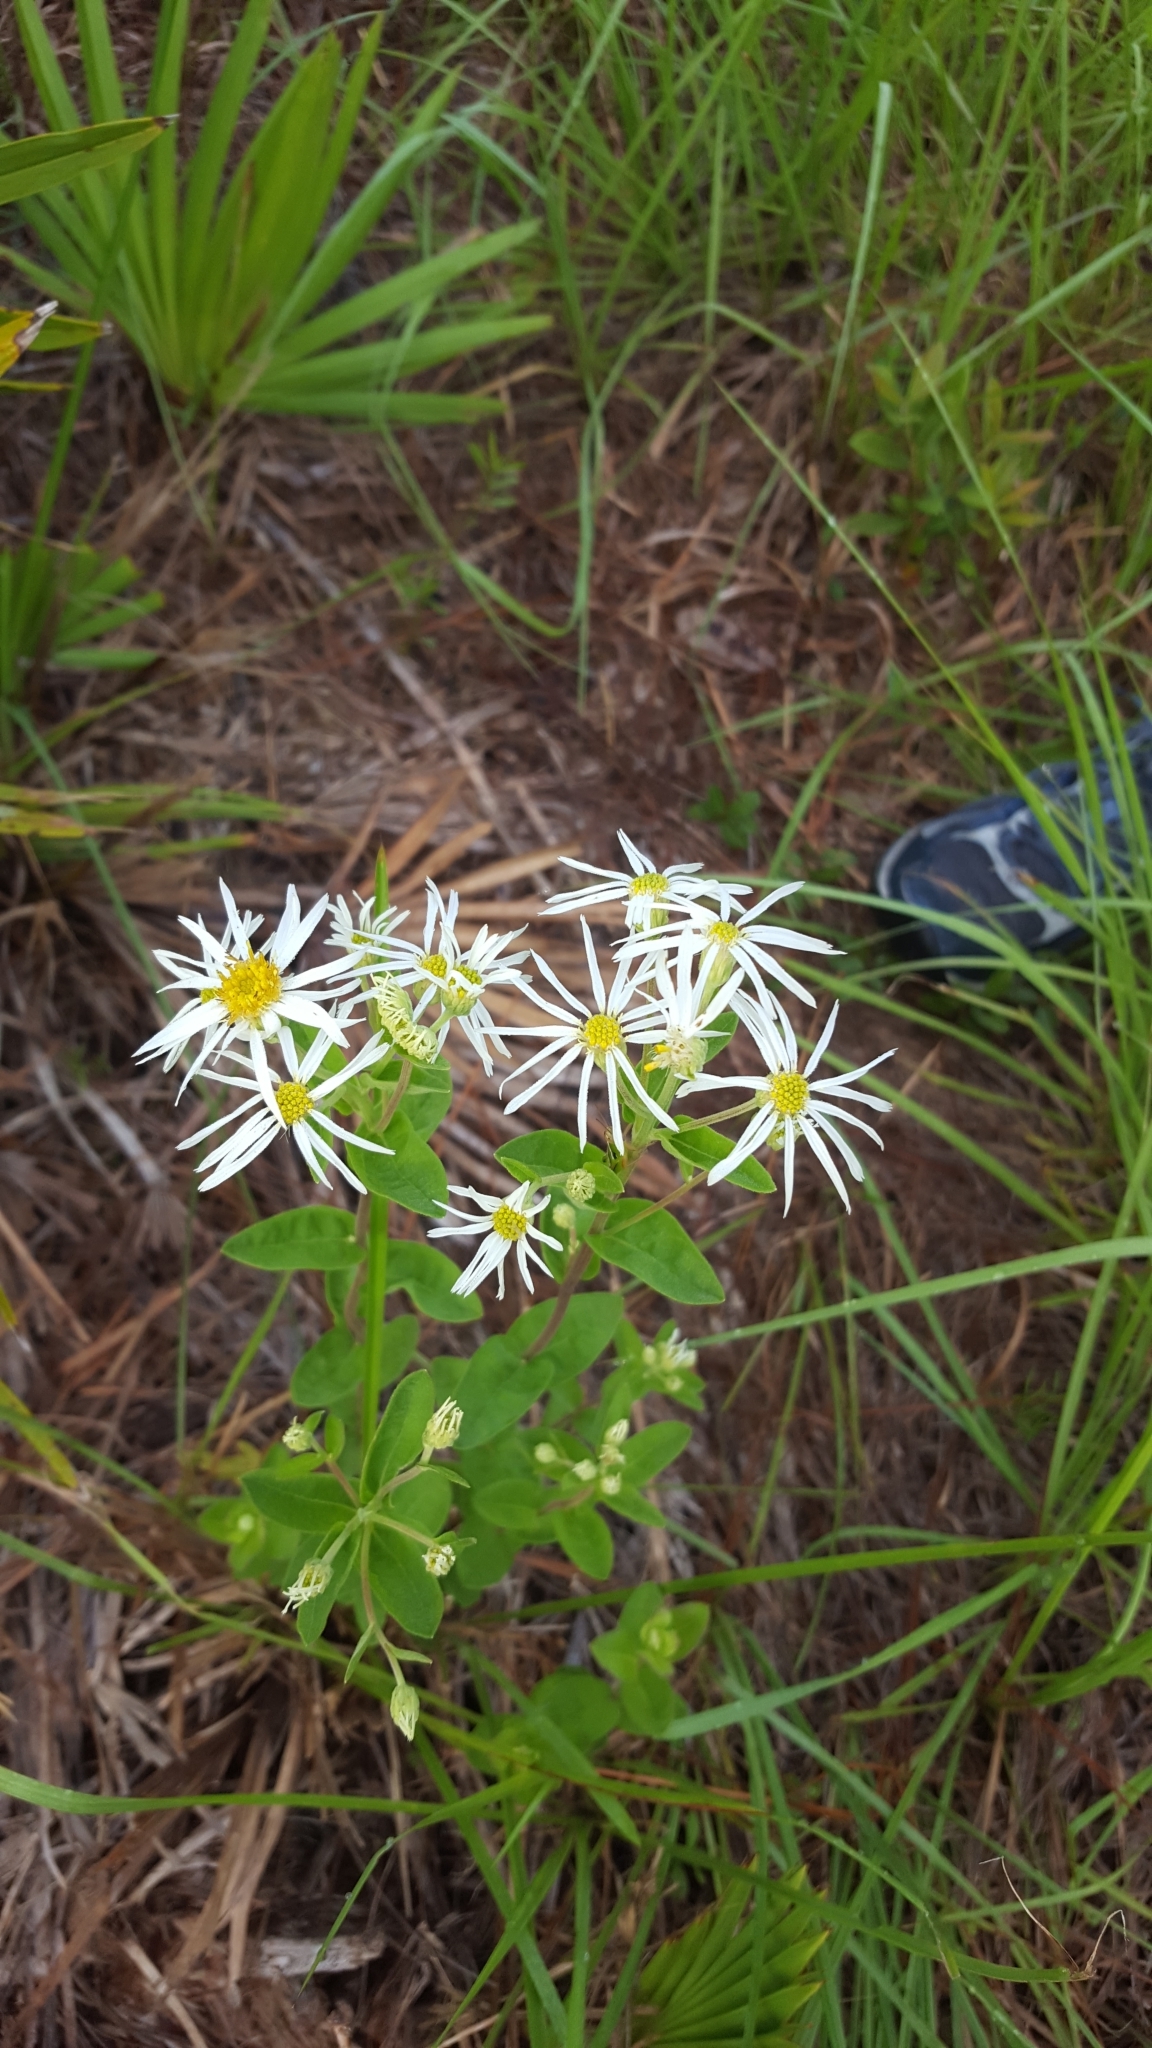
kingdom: Plantae
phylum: Tracheophyta
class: Magnoliopsida
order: Asterales
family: Asteraceae
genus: Oclemena
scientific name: Oclemena reticulata
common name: Pinebarren aster
